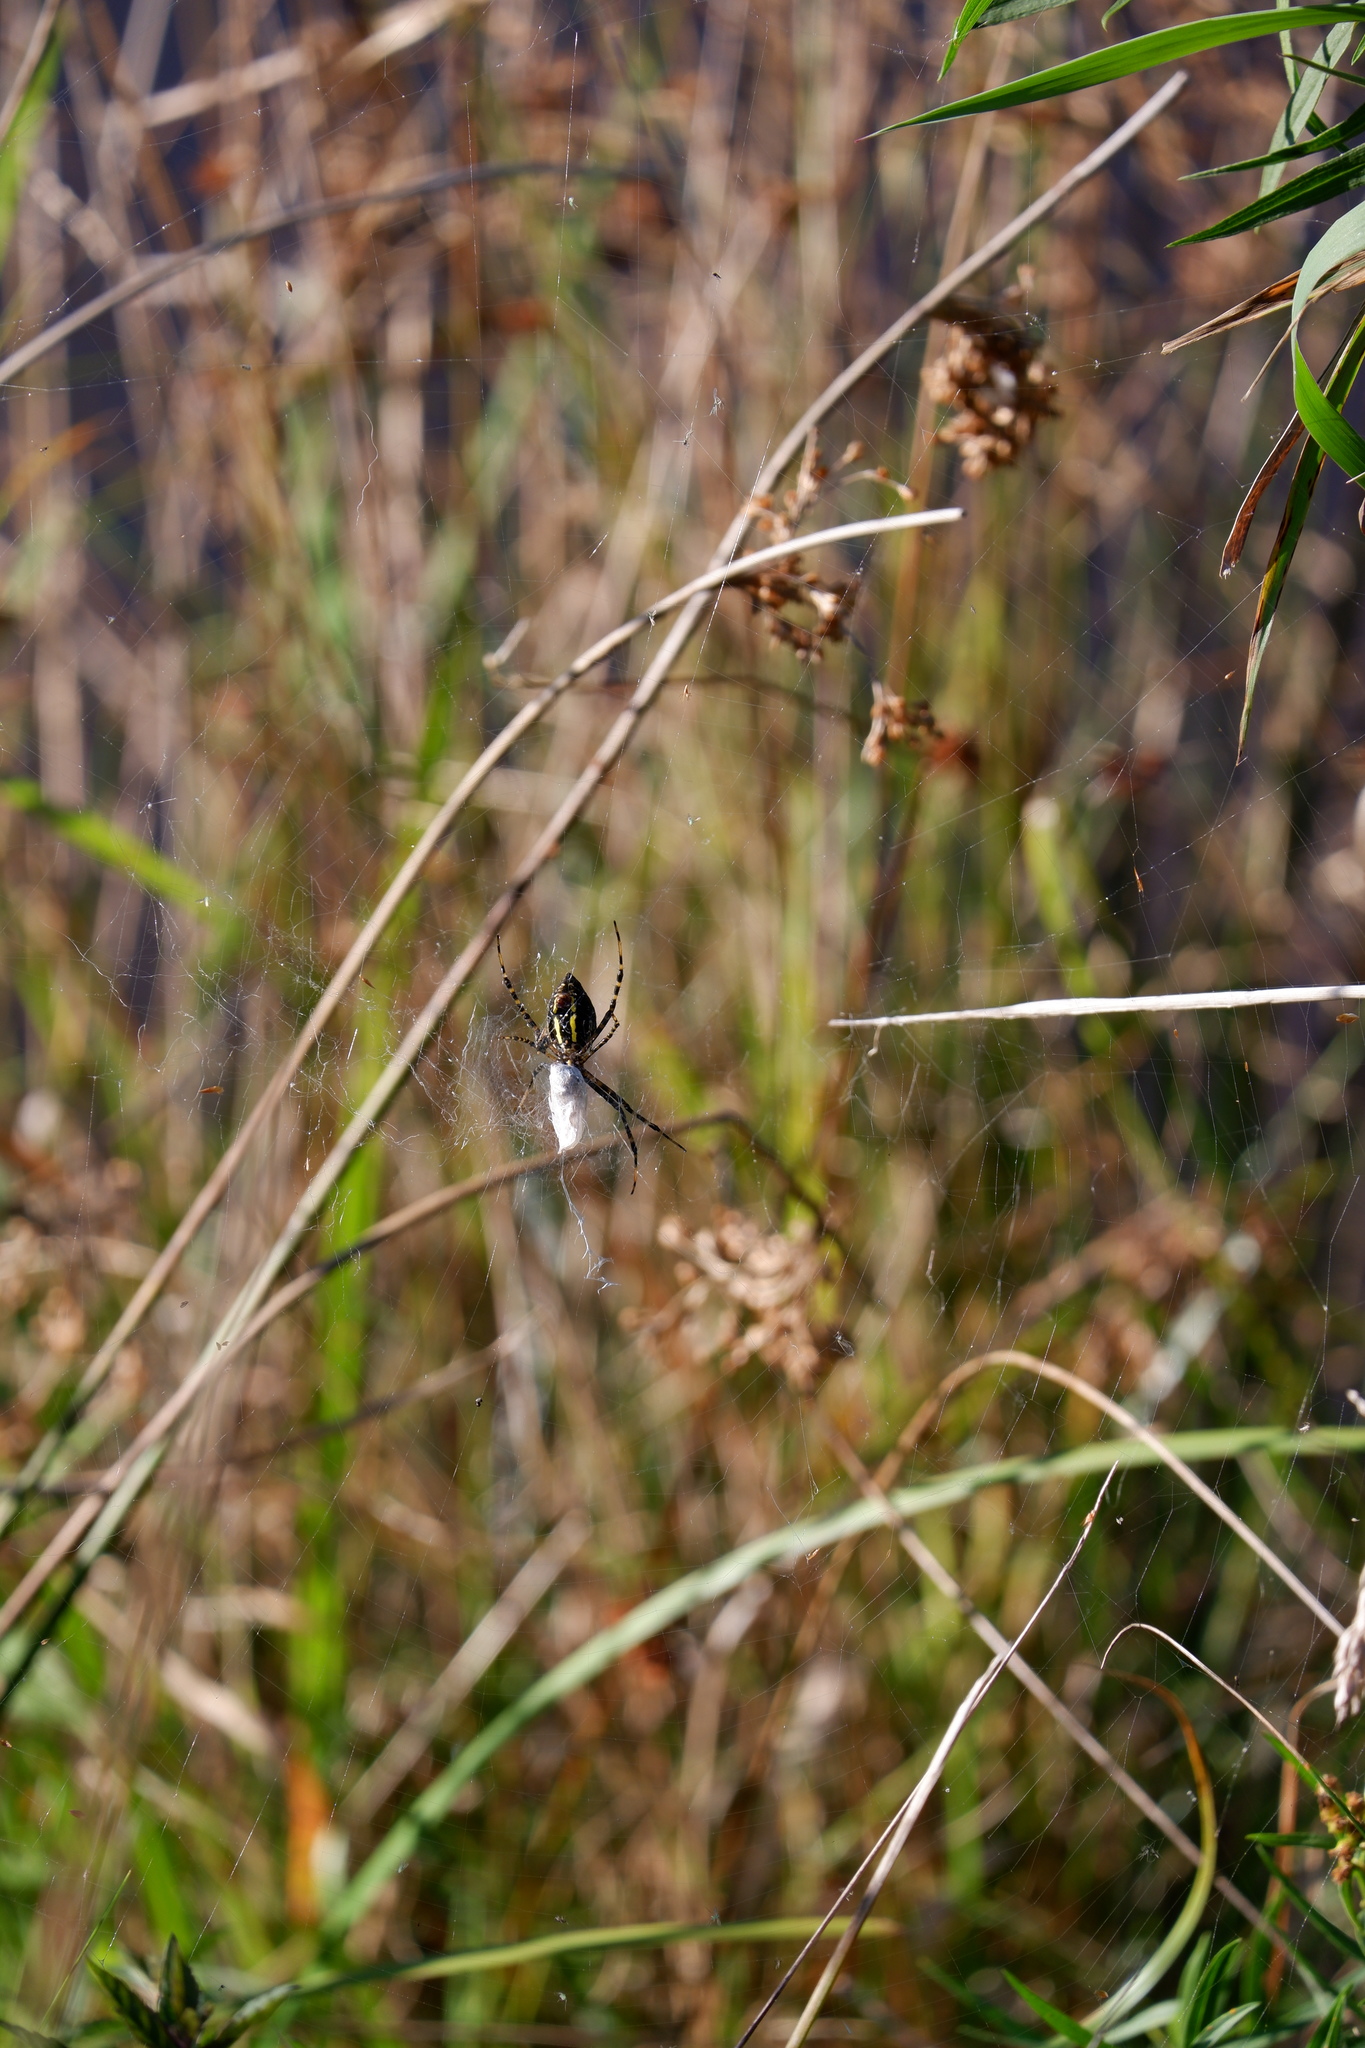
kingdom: Animalia
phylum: Arthropoda
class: Arachnida
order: Araneae
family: Araneidae
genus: Argiope
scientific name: Argiope trifasciata
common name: Banded garden spider
